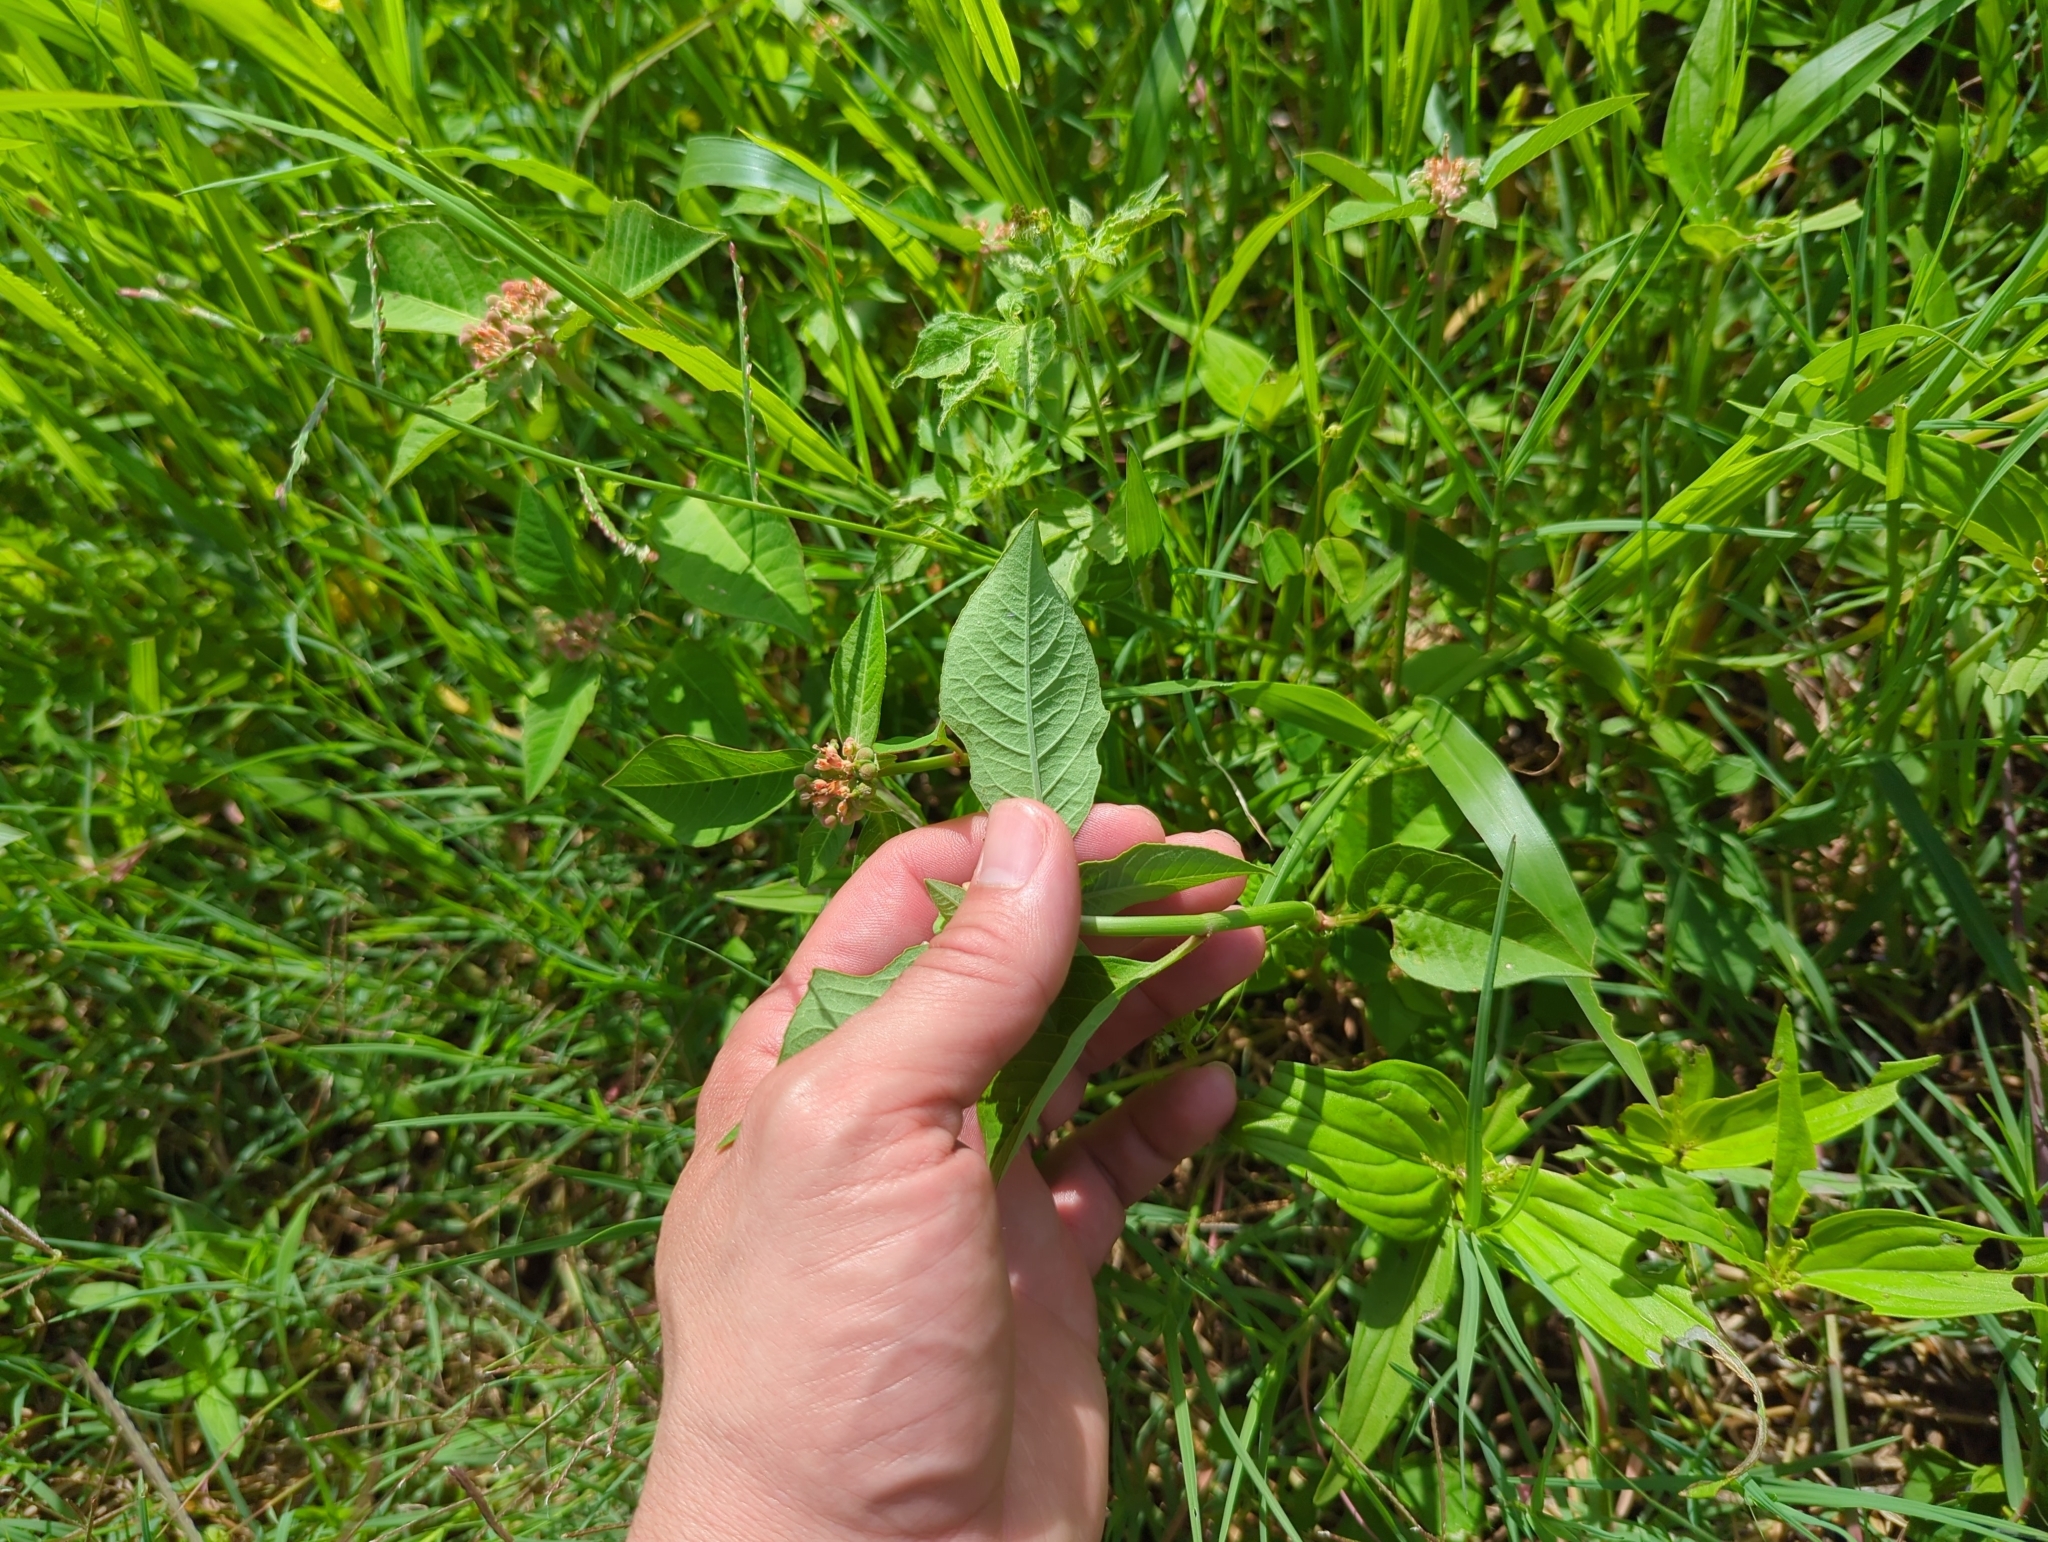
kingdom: Plantae
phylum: Tracheophyta
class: Magnoliopsida
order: Malpighiales
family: Euphorbiaceae
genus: Euphorbia
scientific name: Euphorbia heterophylla
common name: Mexican fireplant
